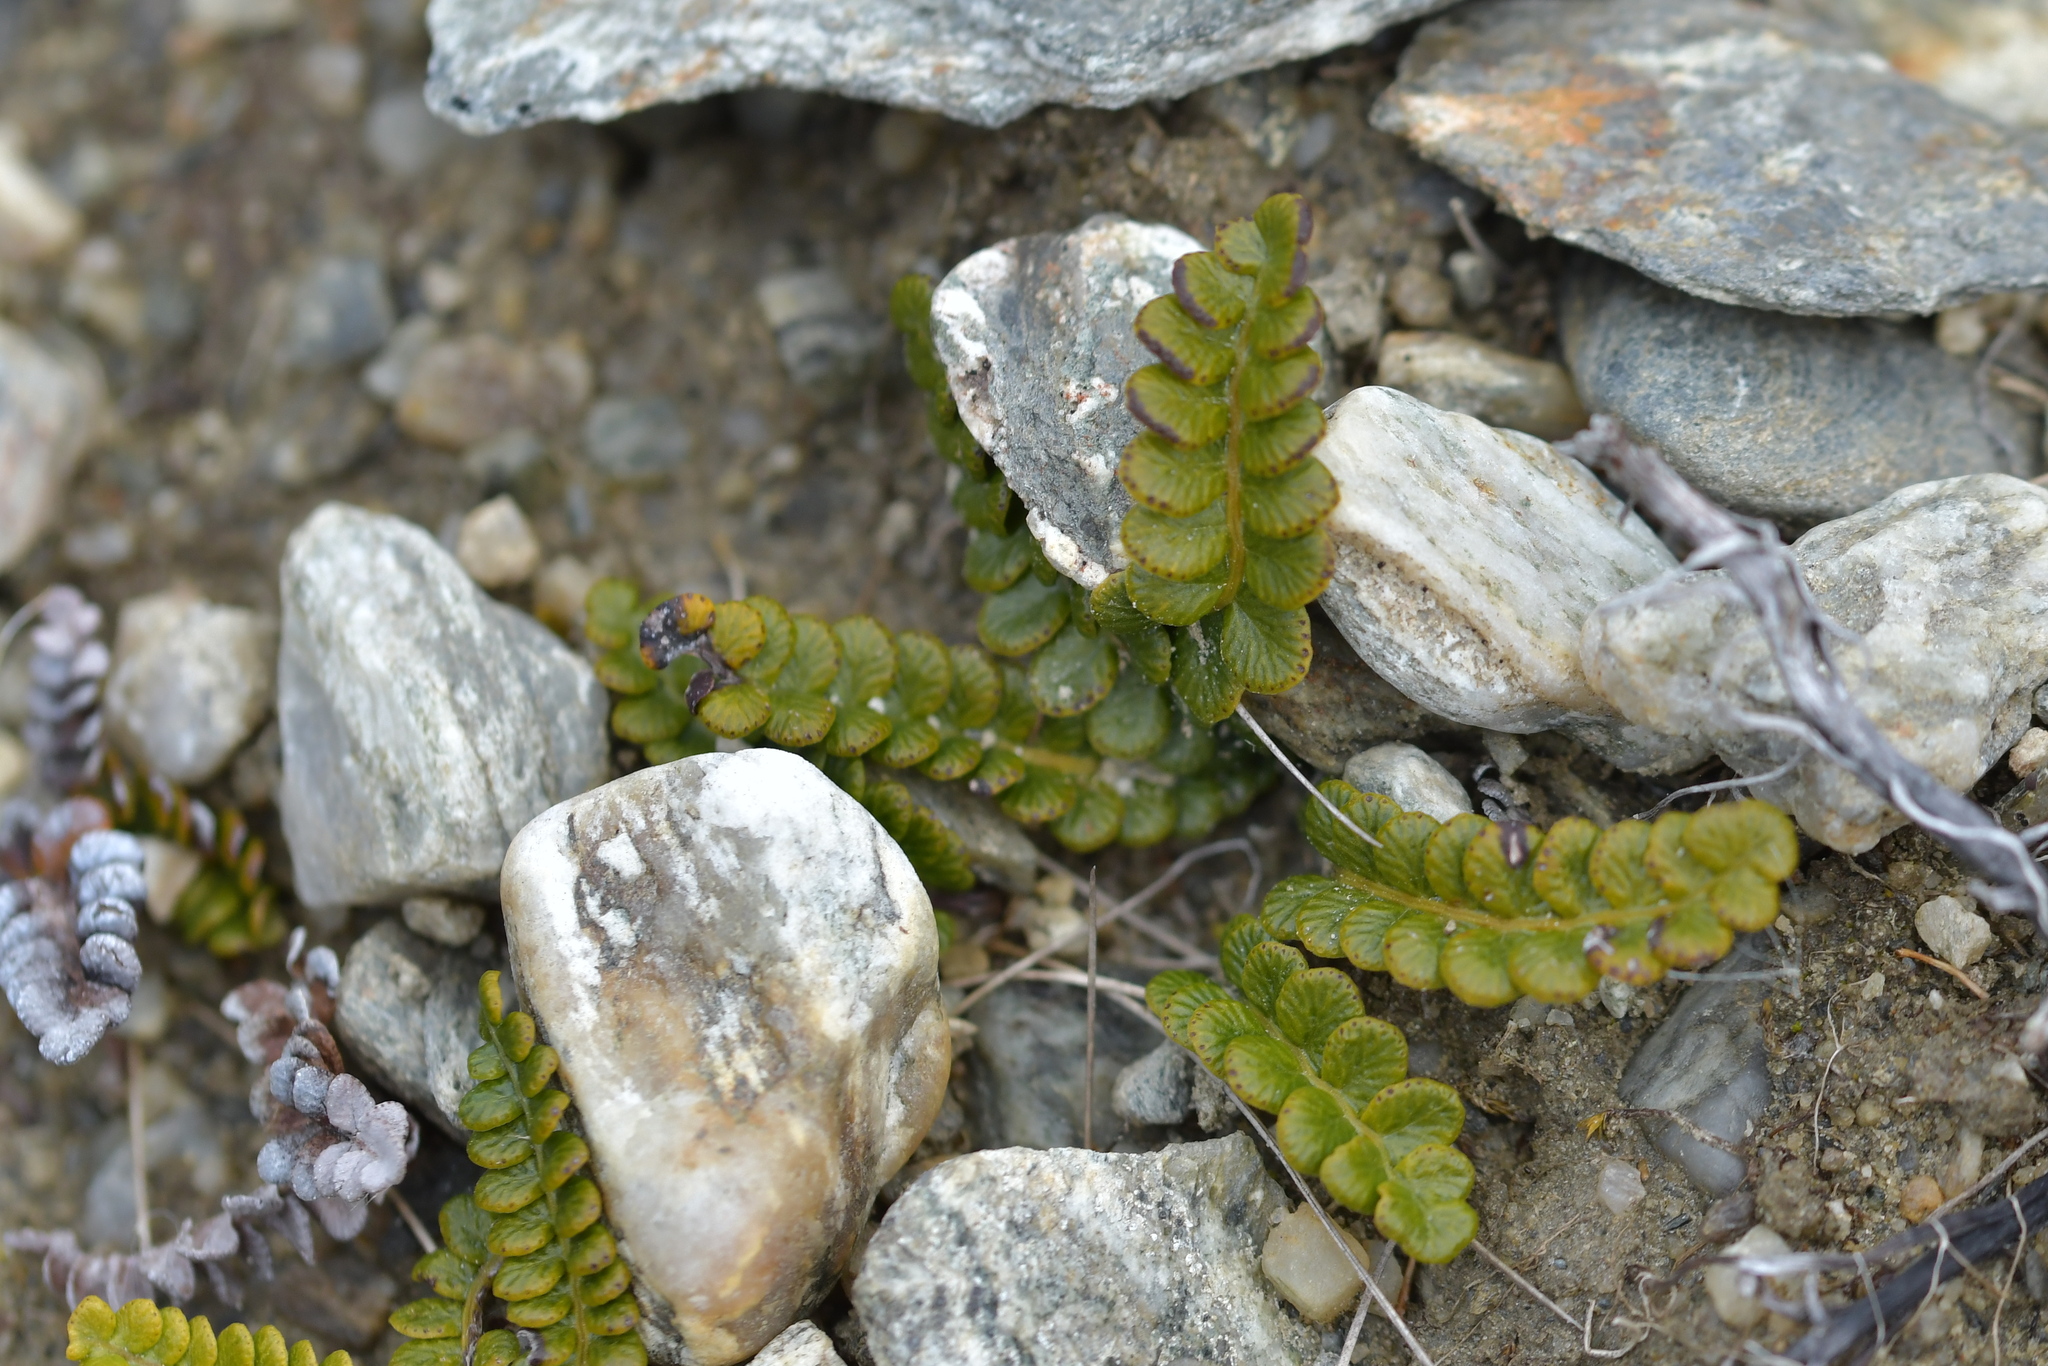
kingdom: Plantae
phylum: Tracheophyta
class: Polypodiopsida
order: Polypodiales
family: Blechnaceae
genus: Austroblechnum
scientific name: Austroblechnum penna-marina
